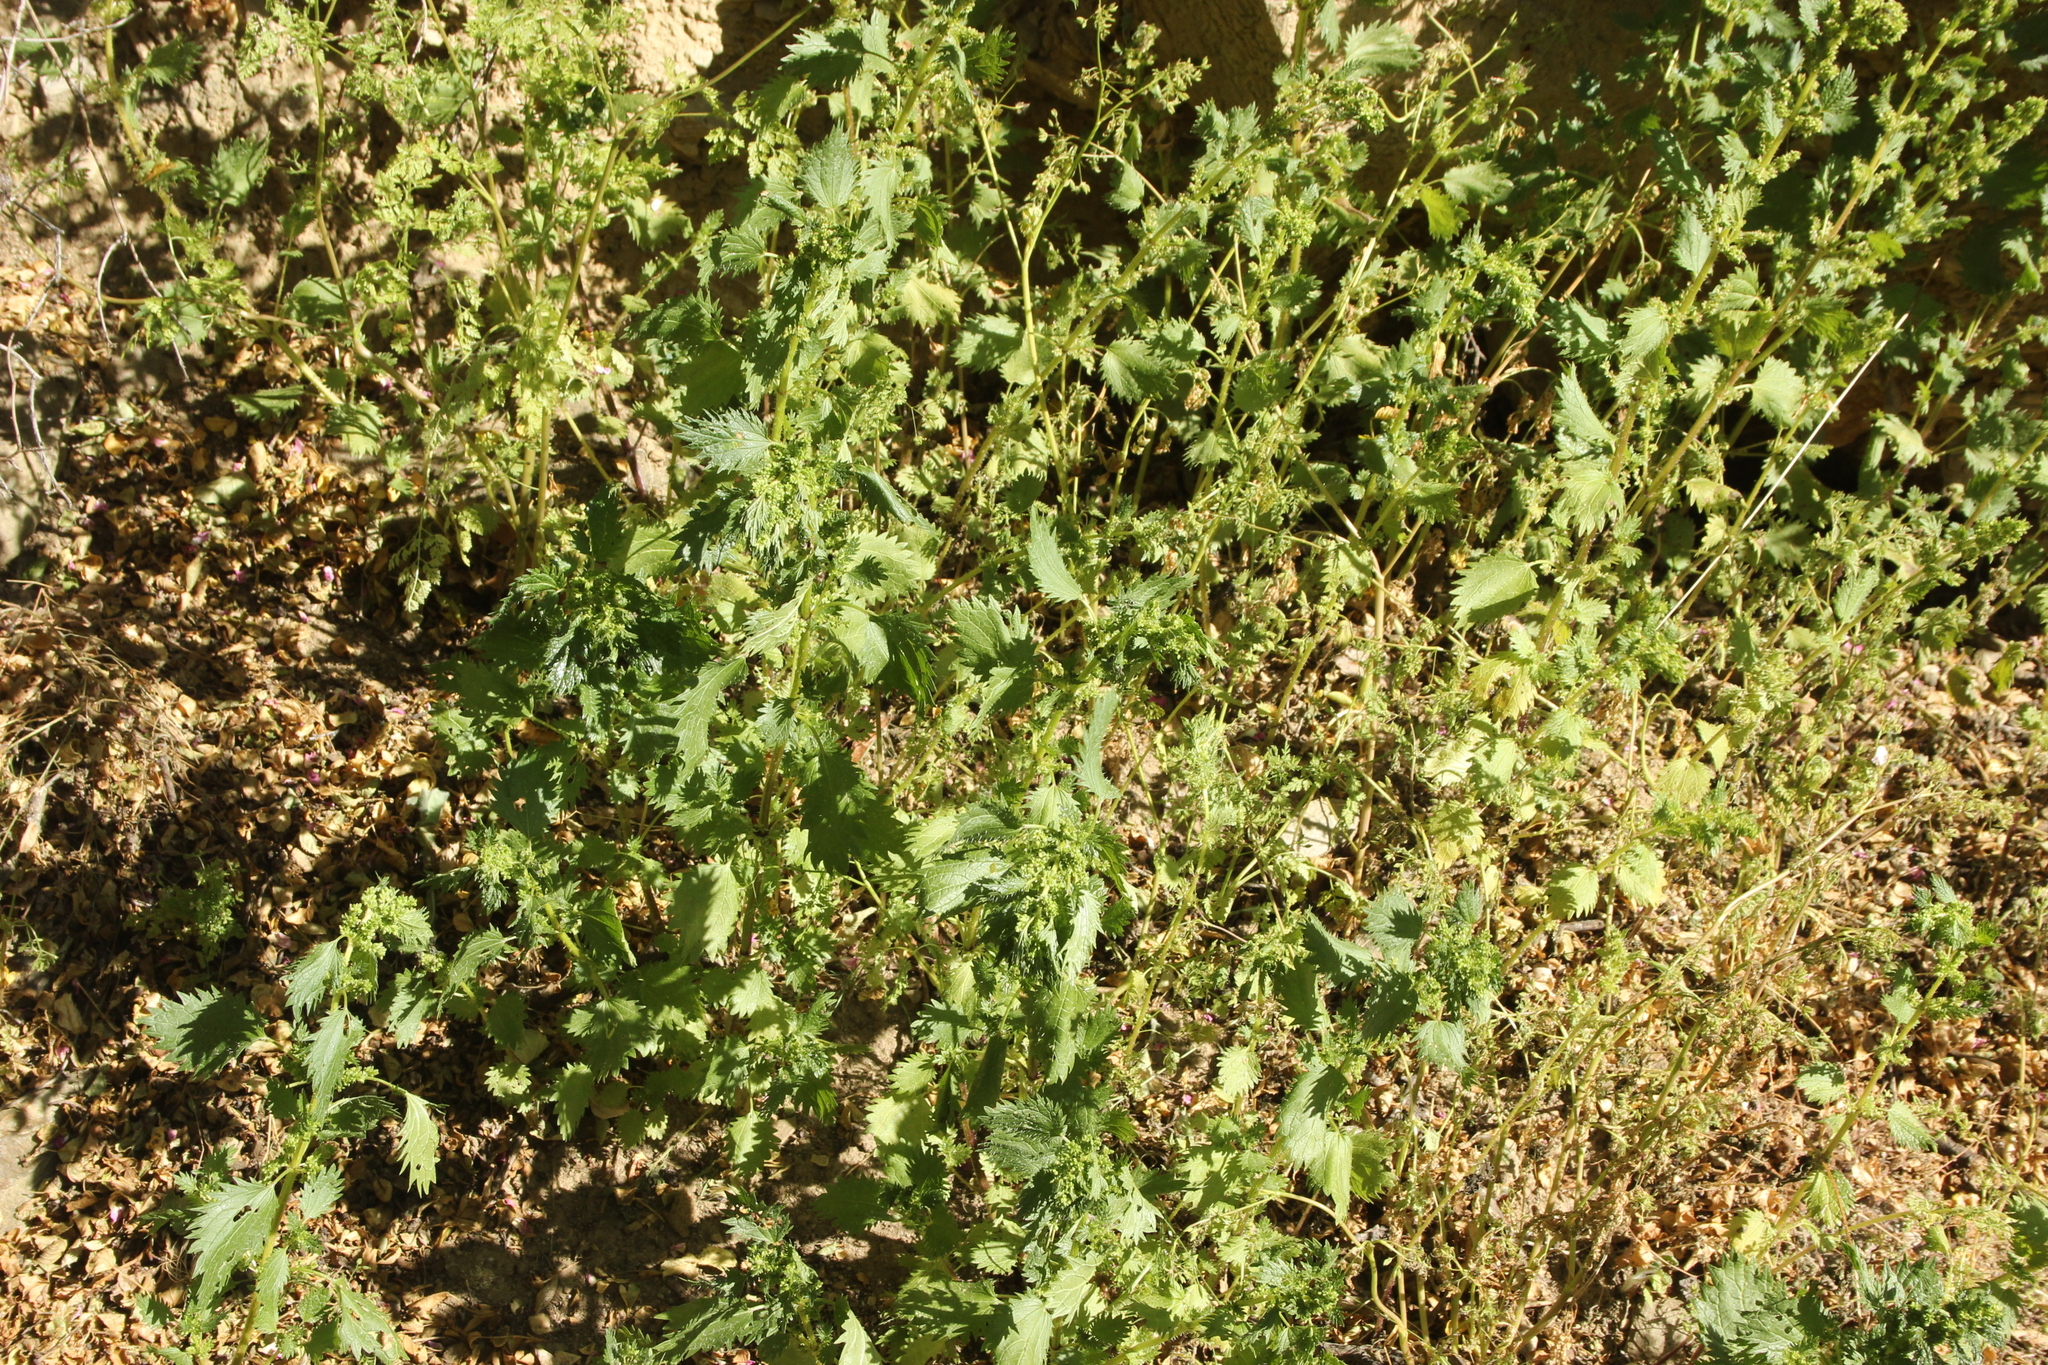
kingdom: Plantae
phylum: Tracheophyta
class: Magnoliopsida
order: Rosales
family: Urticaceae
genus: Urtica
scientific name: Urtica urens
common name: Dwarf nettle
